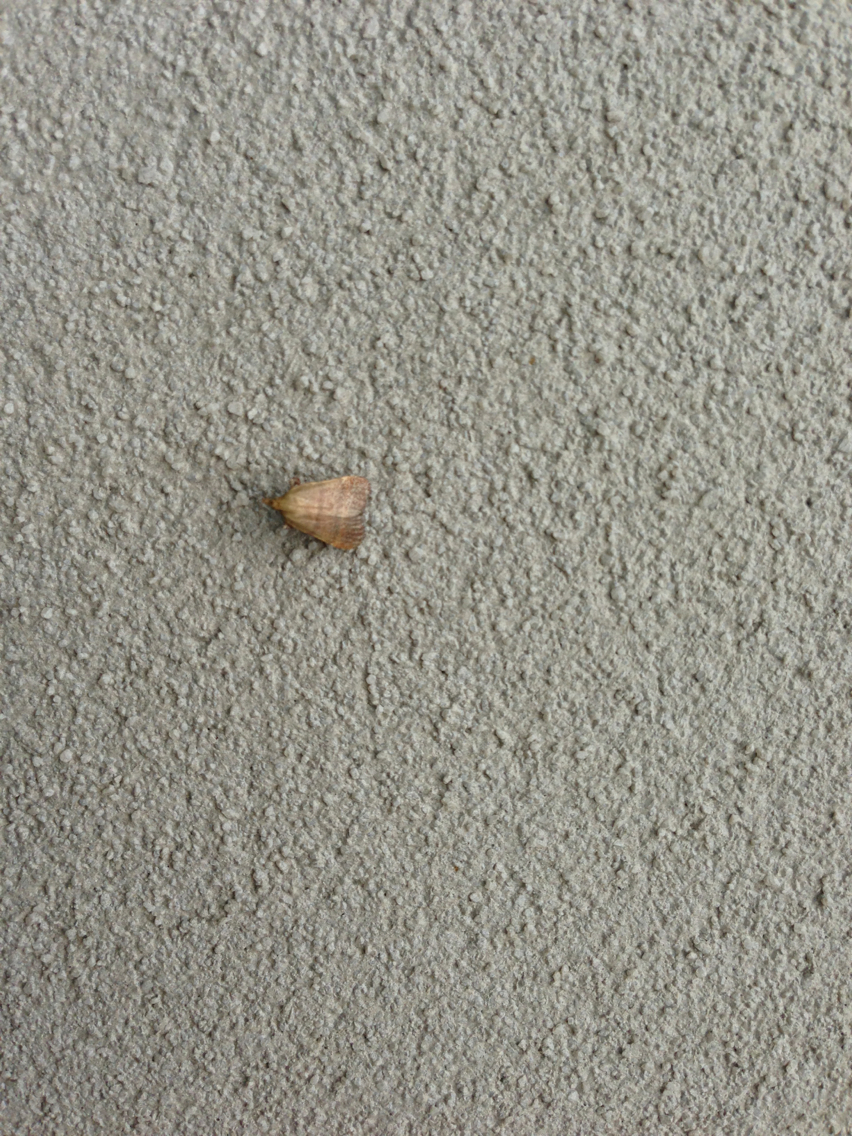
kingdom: Animalia
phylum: Arthropoda
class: Insecta
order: Lepidoptera
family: Pyralidae
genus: Condylolomia
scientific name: Condylolomia participialis
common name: Drab condylolomia moth
